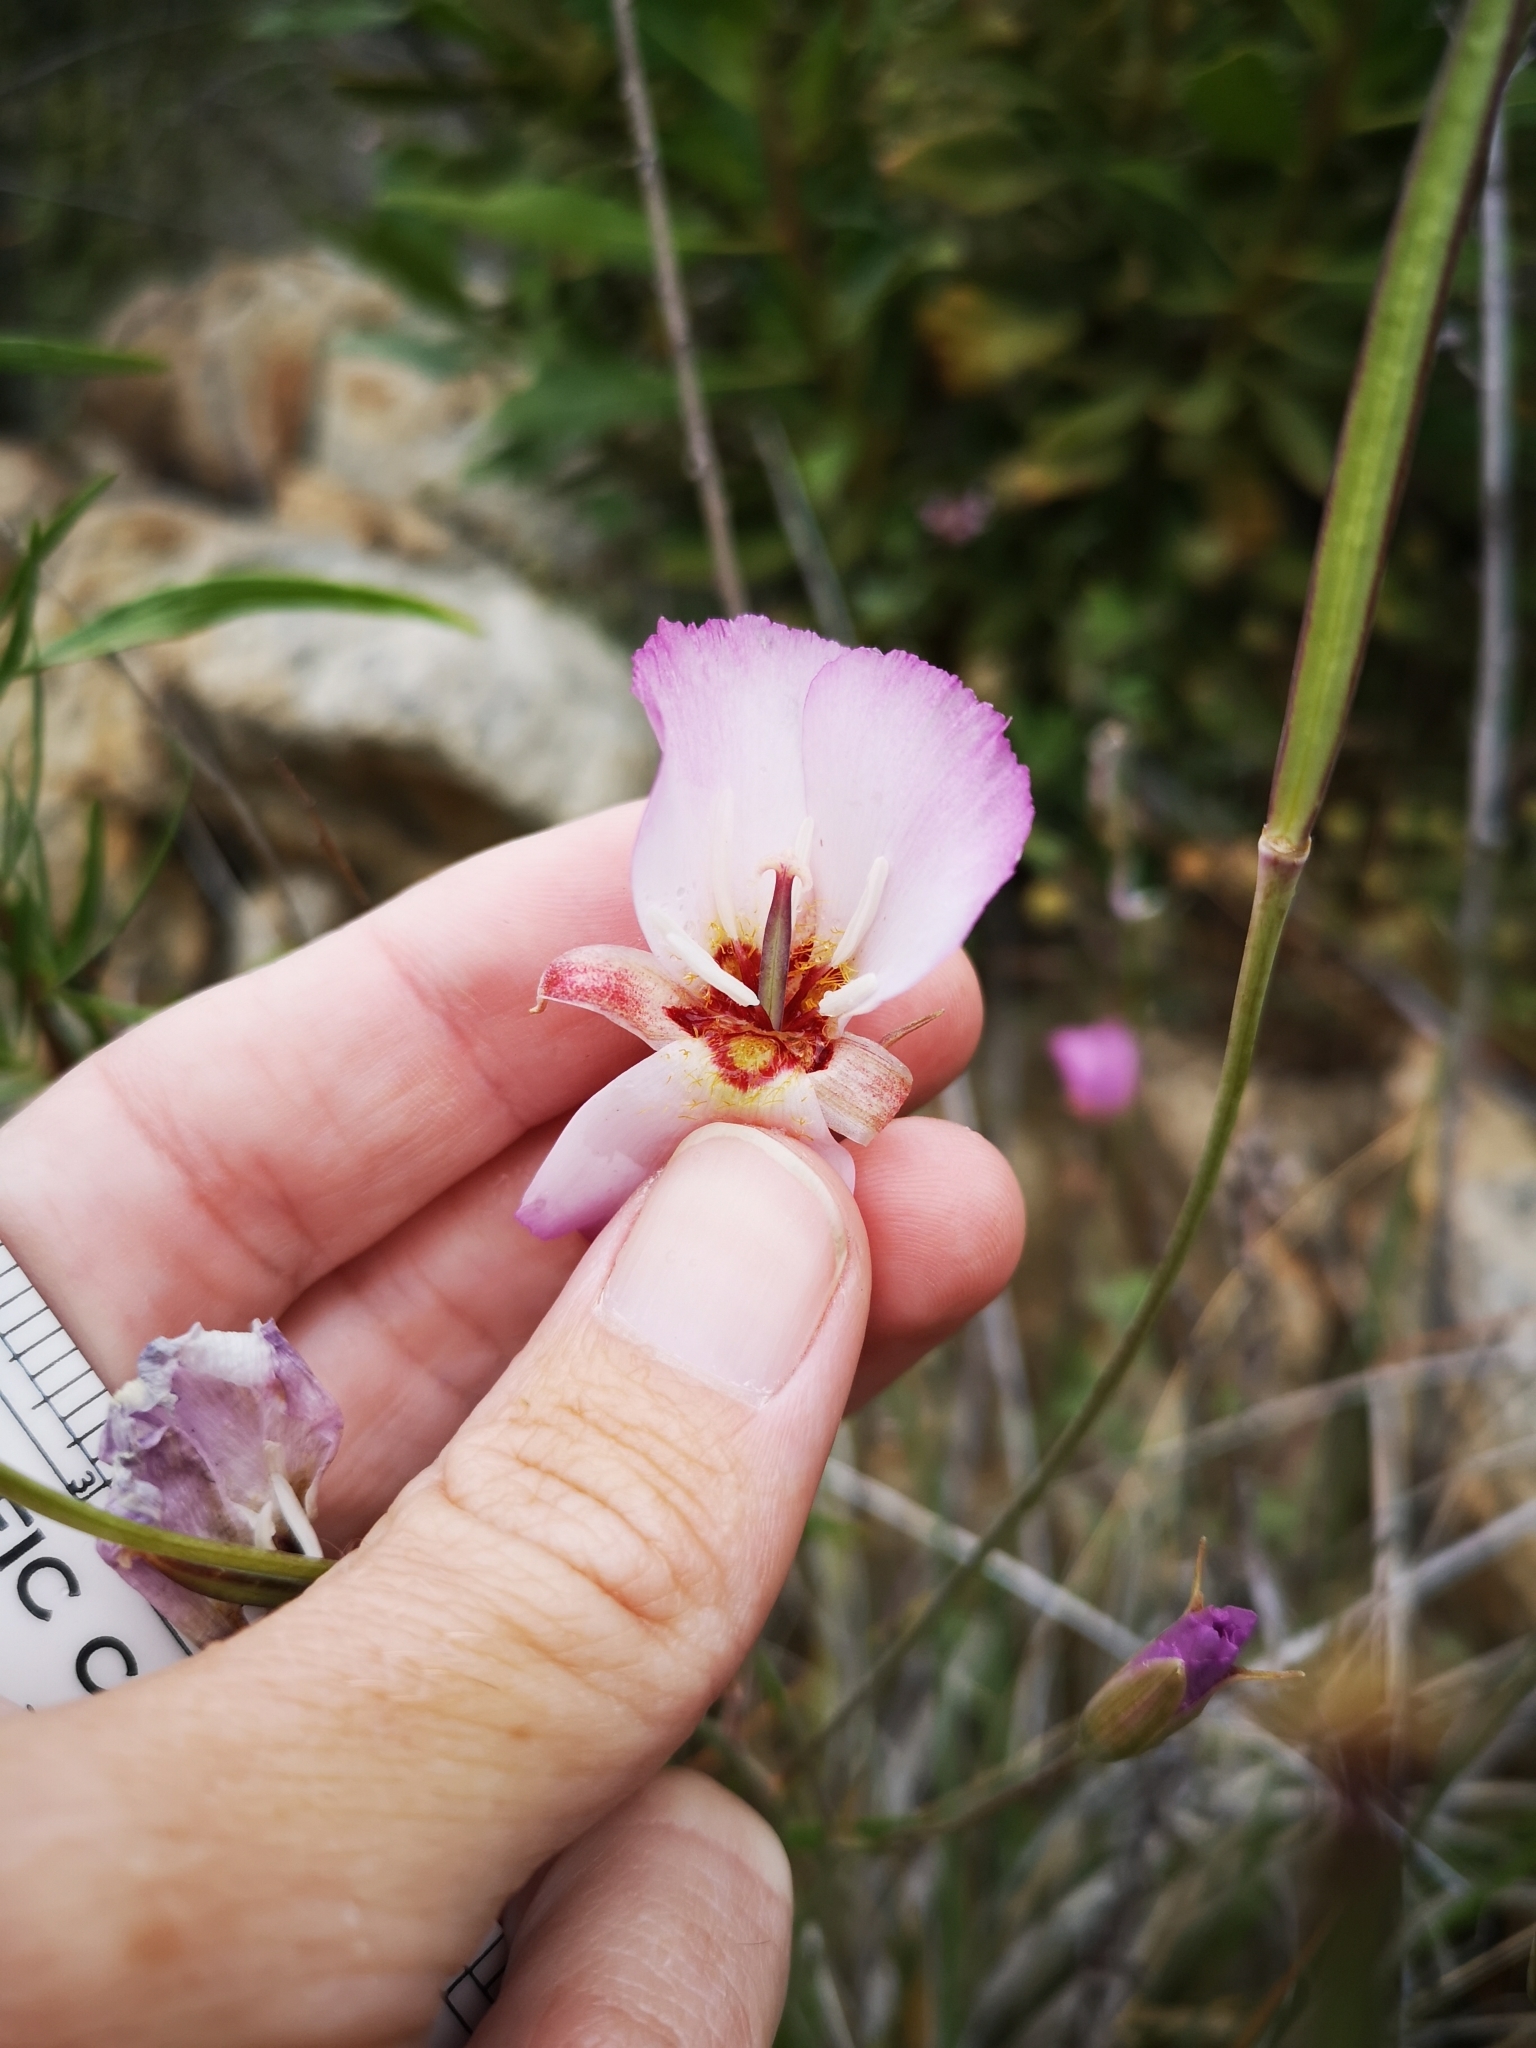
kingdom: Plantae
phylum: Tracheophyta
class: Liliopsida
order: Liliales
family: Liliaceae
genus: Calochortus
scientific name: Calochortus palmeri
